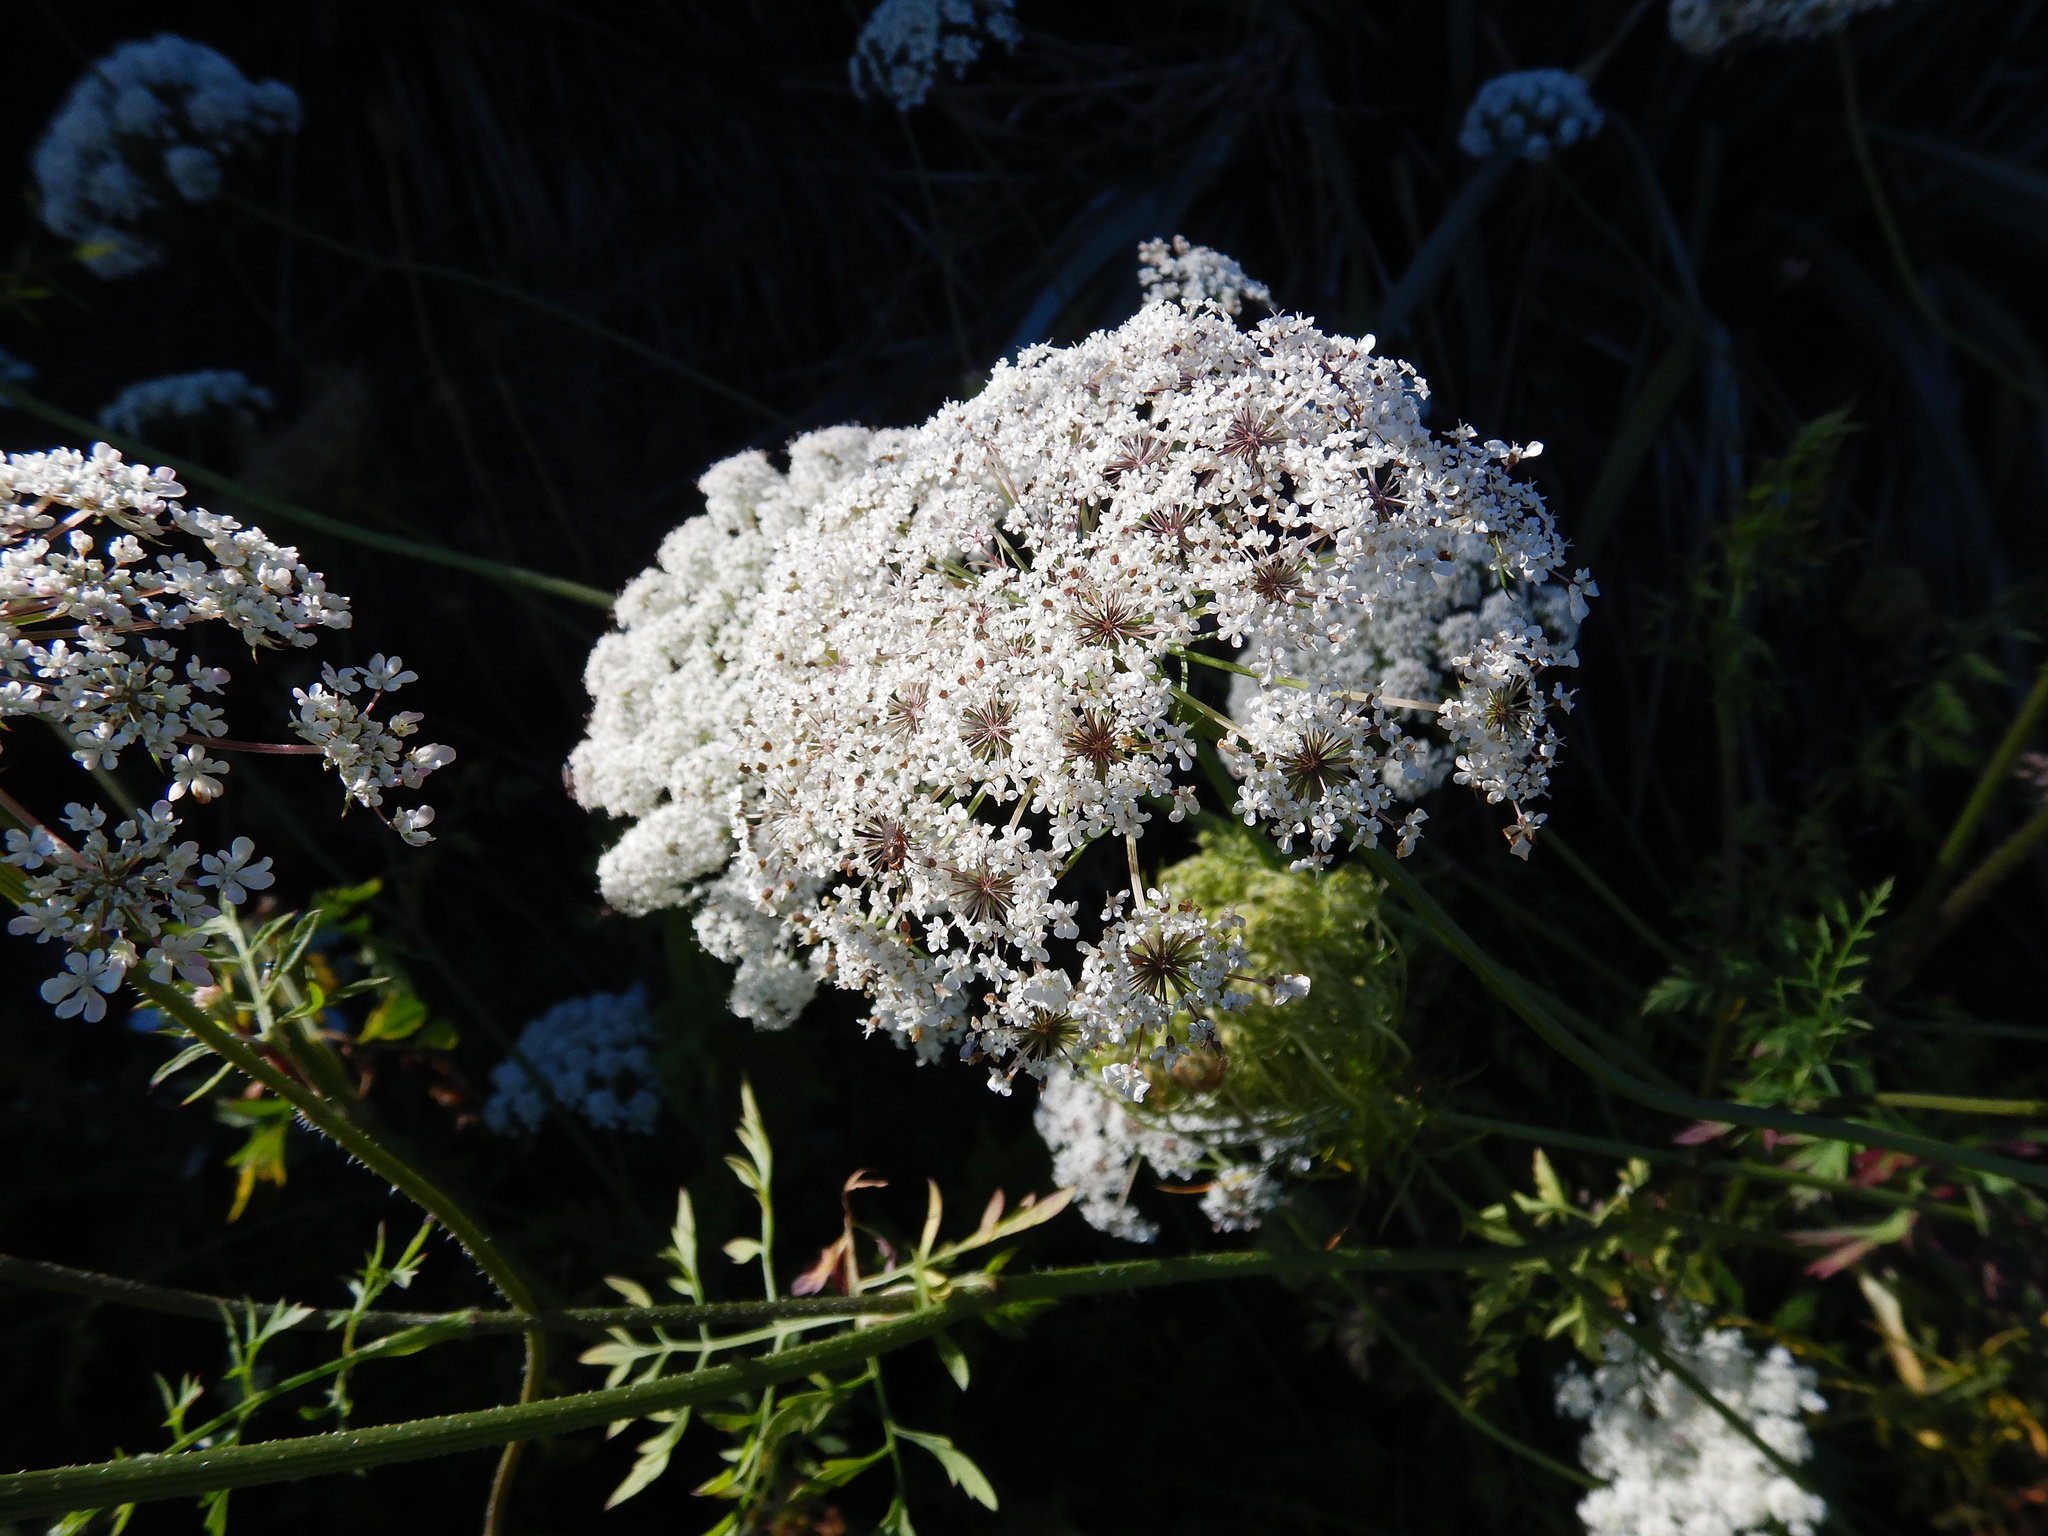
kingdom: Plantae
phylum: Tracheophyta
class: Magnoliopsida
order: Apiales
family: Apiaceae
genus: Daucus
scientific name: Daucus carota
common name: Wild carrot
